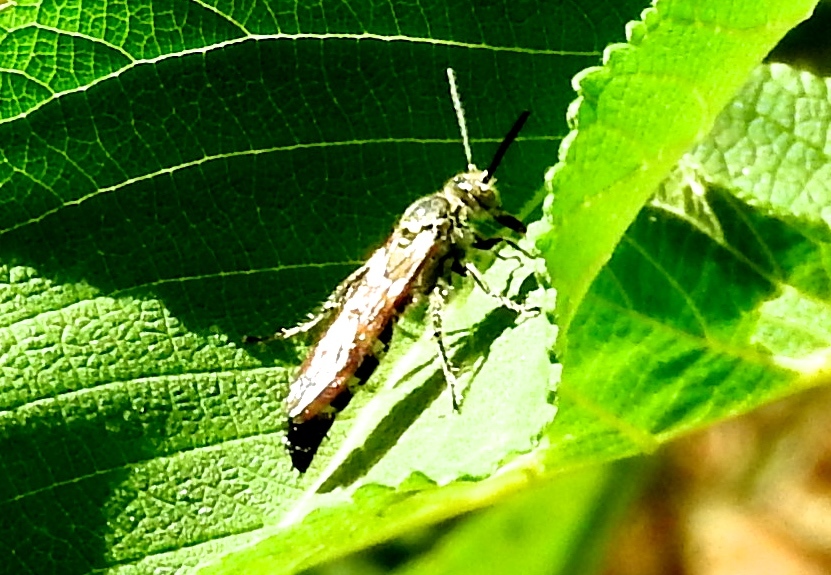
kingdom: Animalia
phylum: Arthropoda
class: Insecta
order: Hymenoptera
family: Scoliidae
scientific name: Scoliidae
